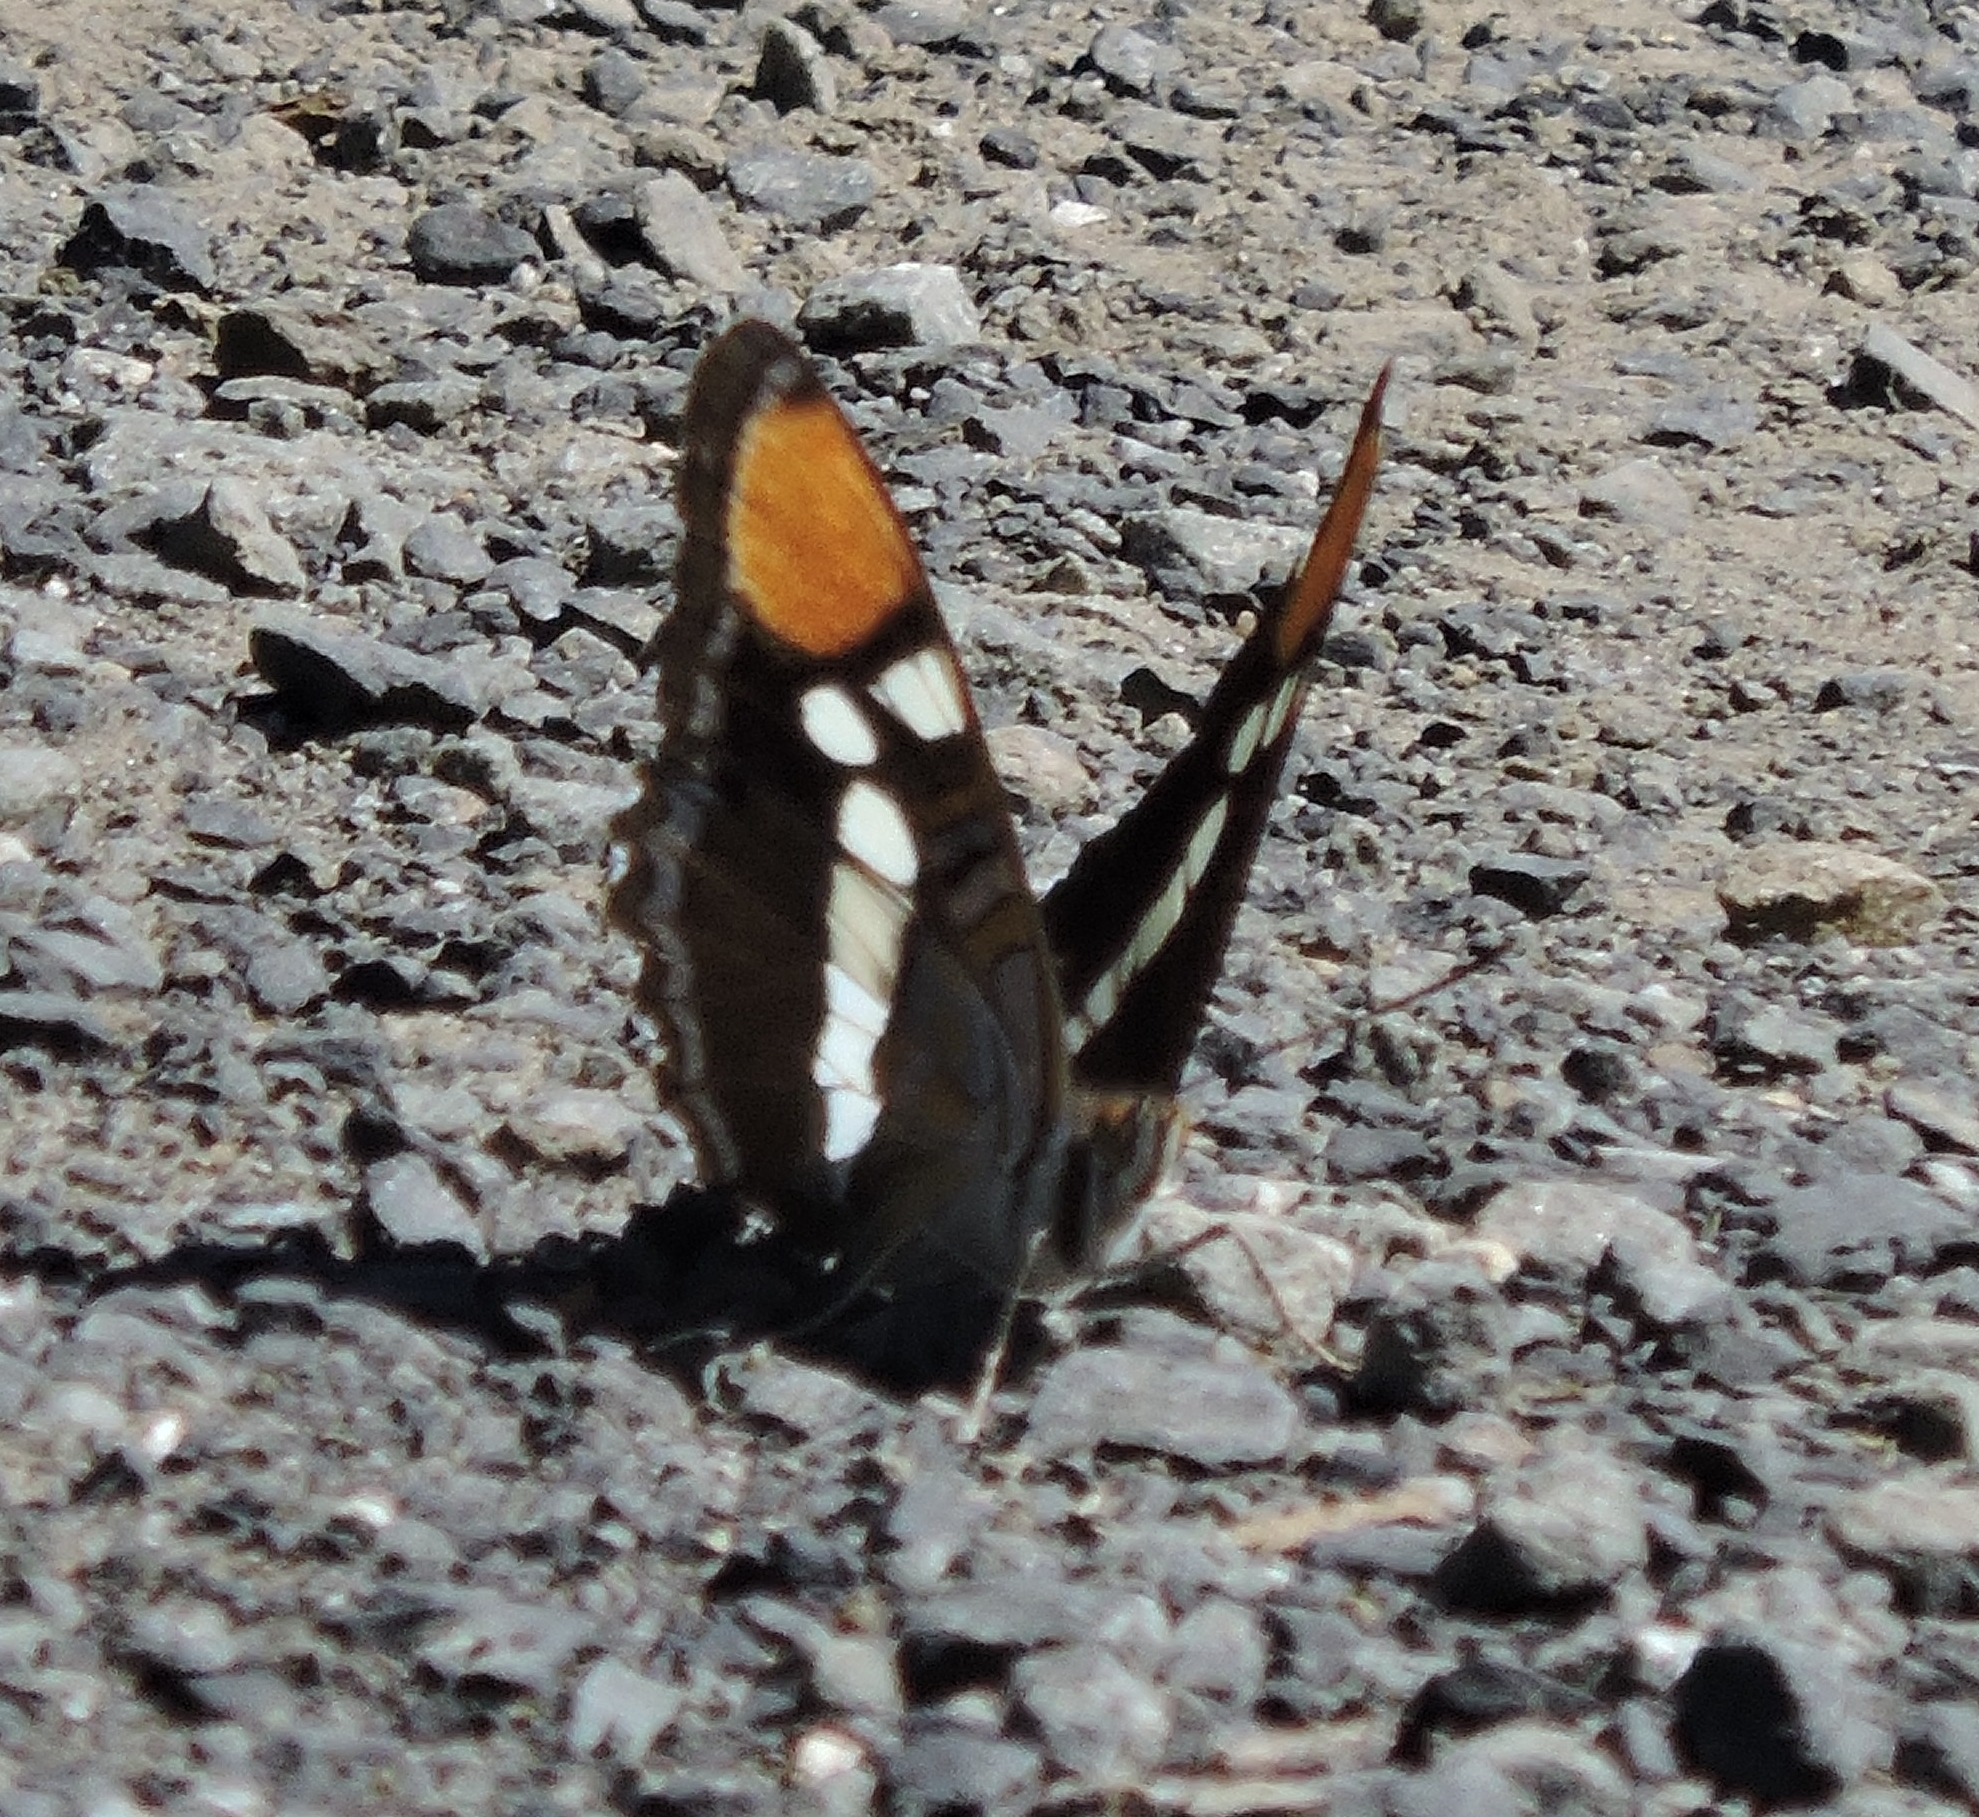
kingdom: Animalia
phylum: Arthropoda
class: Insecta
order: Lepidoptera
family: Nymphalidae
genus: Limenitis
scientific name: Limenitis bredowii
